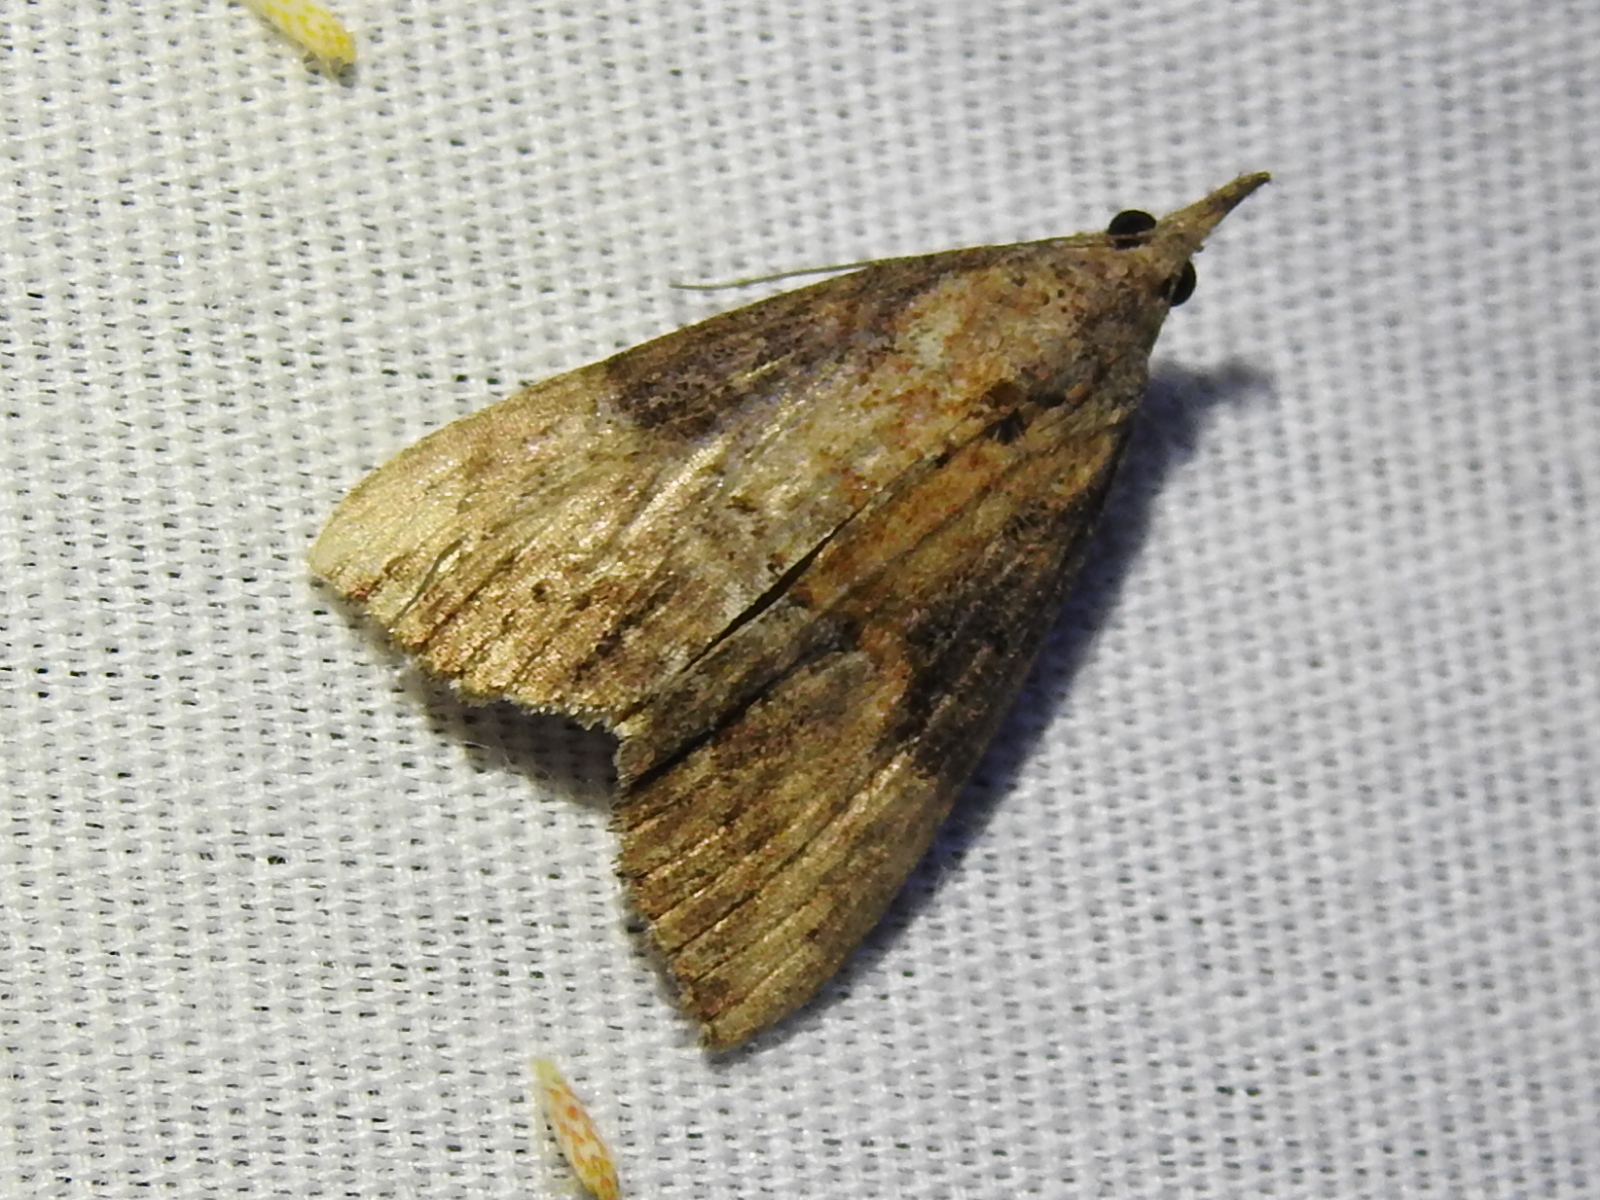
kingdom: Animalia
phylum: Arthropoda
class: Insecta
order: Lepidoptera
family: Erebidae
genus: Hypena
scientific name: Hypena scabra
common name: Green cloverworm
